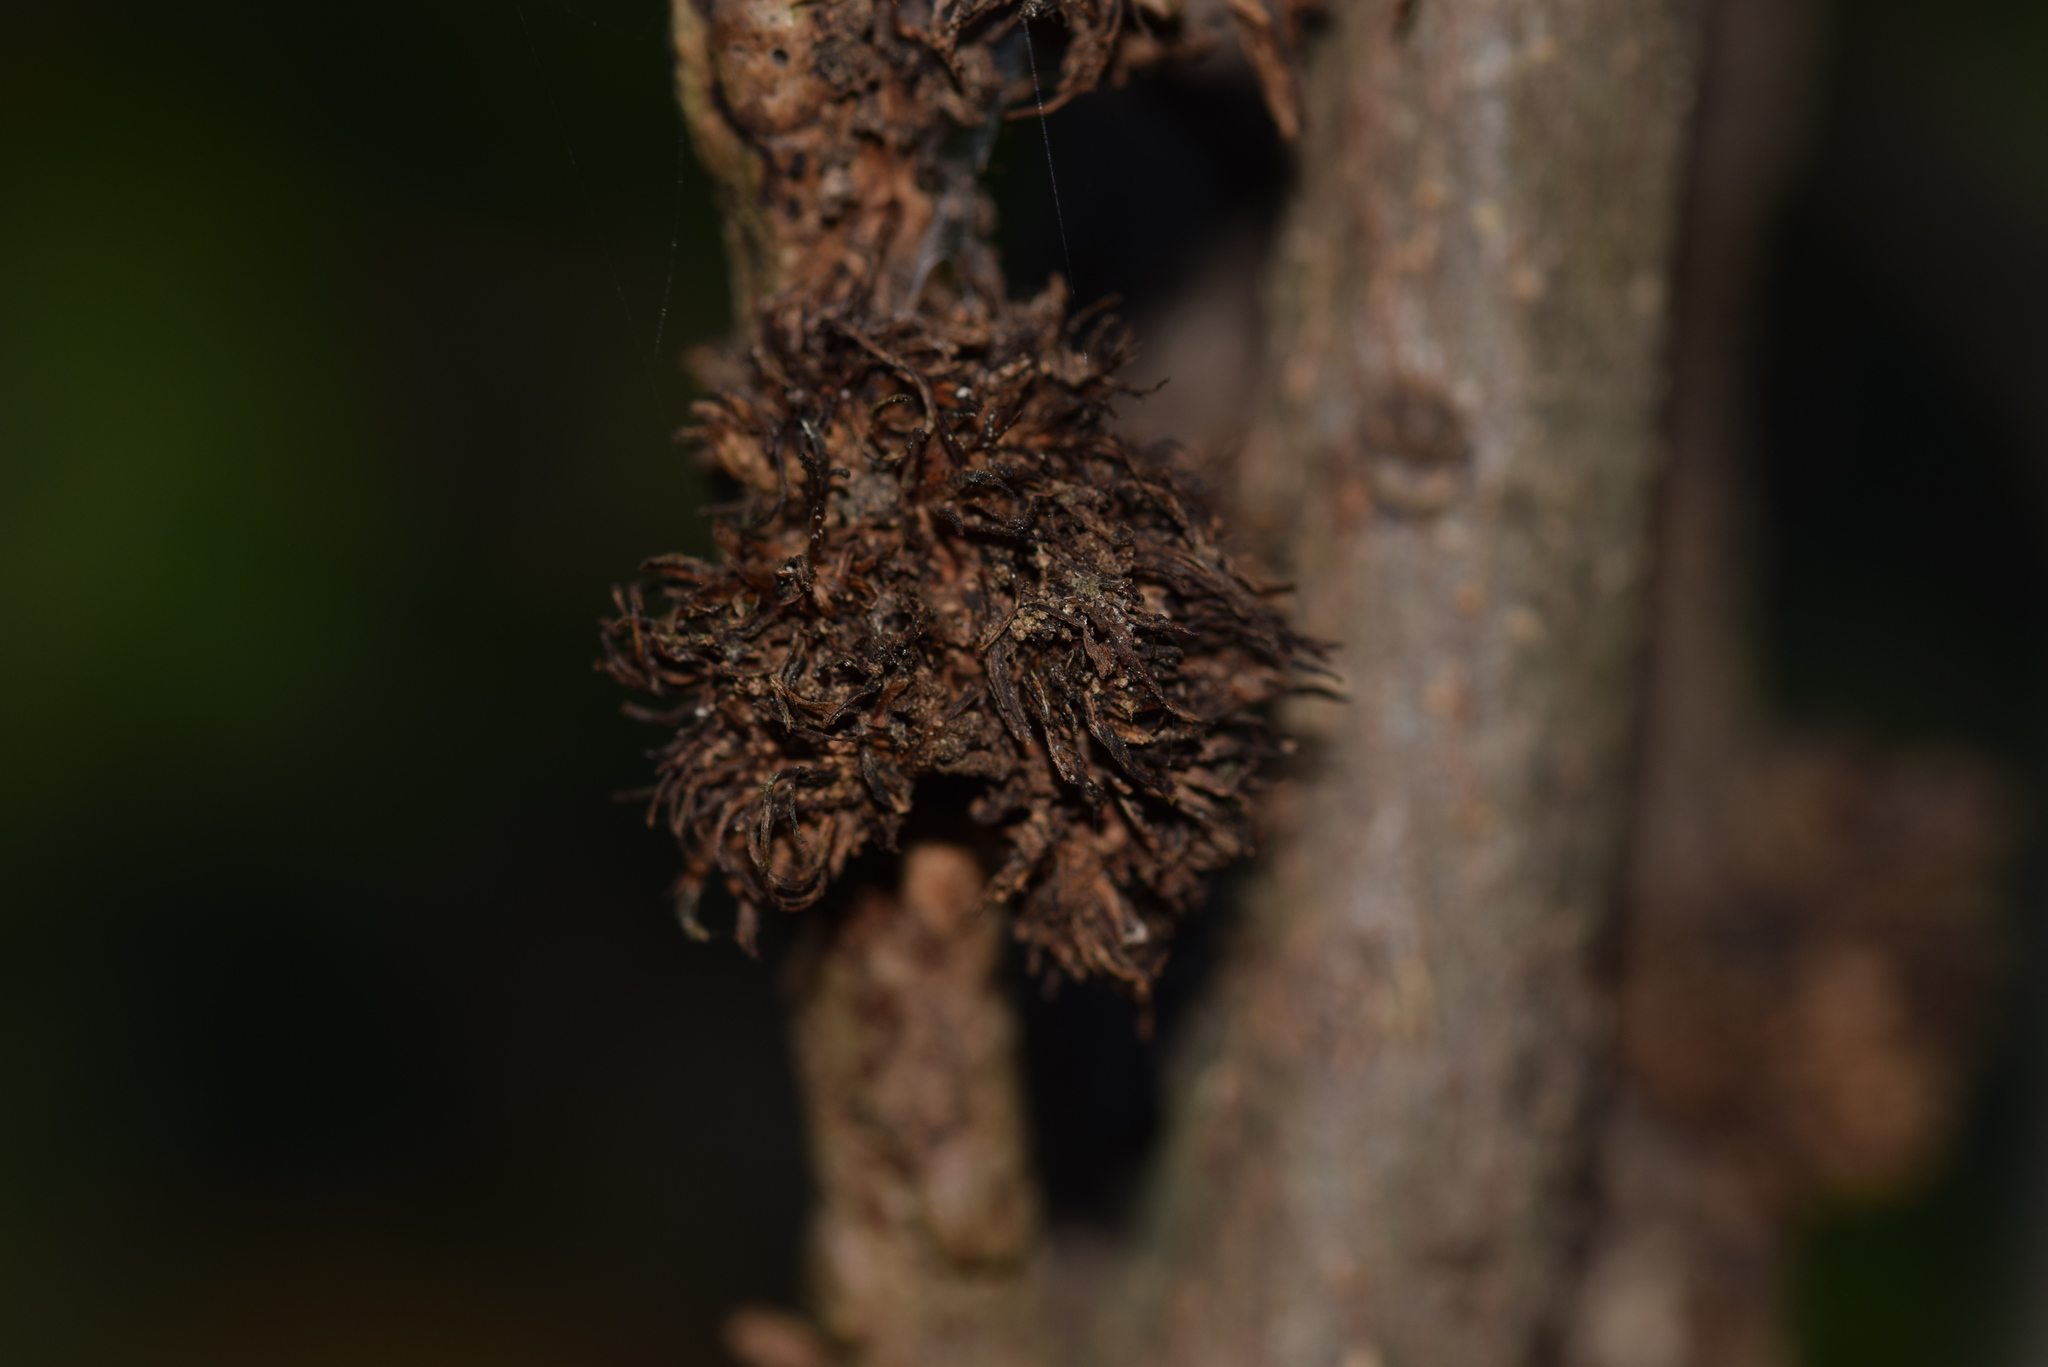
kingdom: Animalia
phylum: Arthropoda
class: Insecta
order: Hymenoptera
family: Cynipidae
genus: Andricus
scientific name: Andricus
